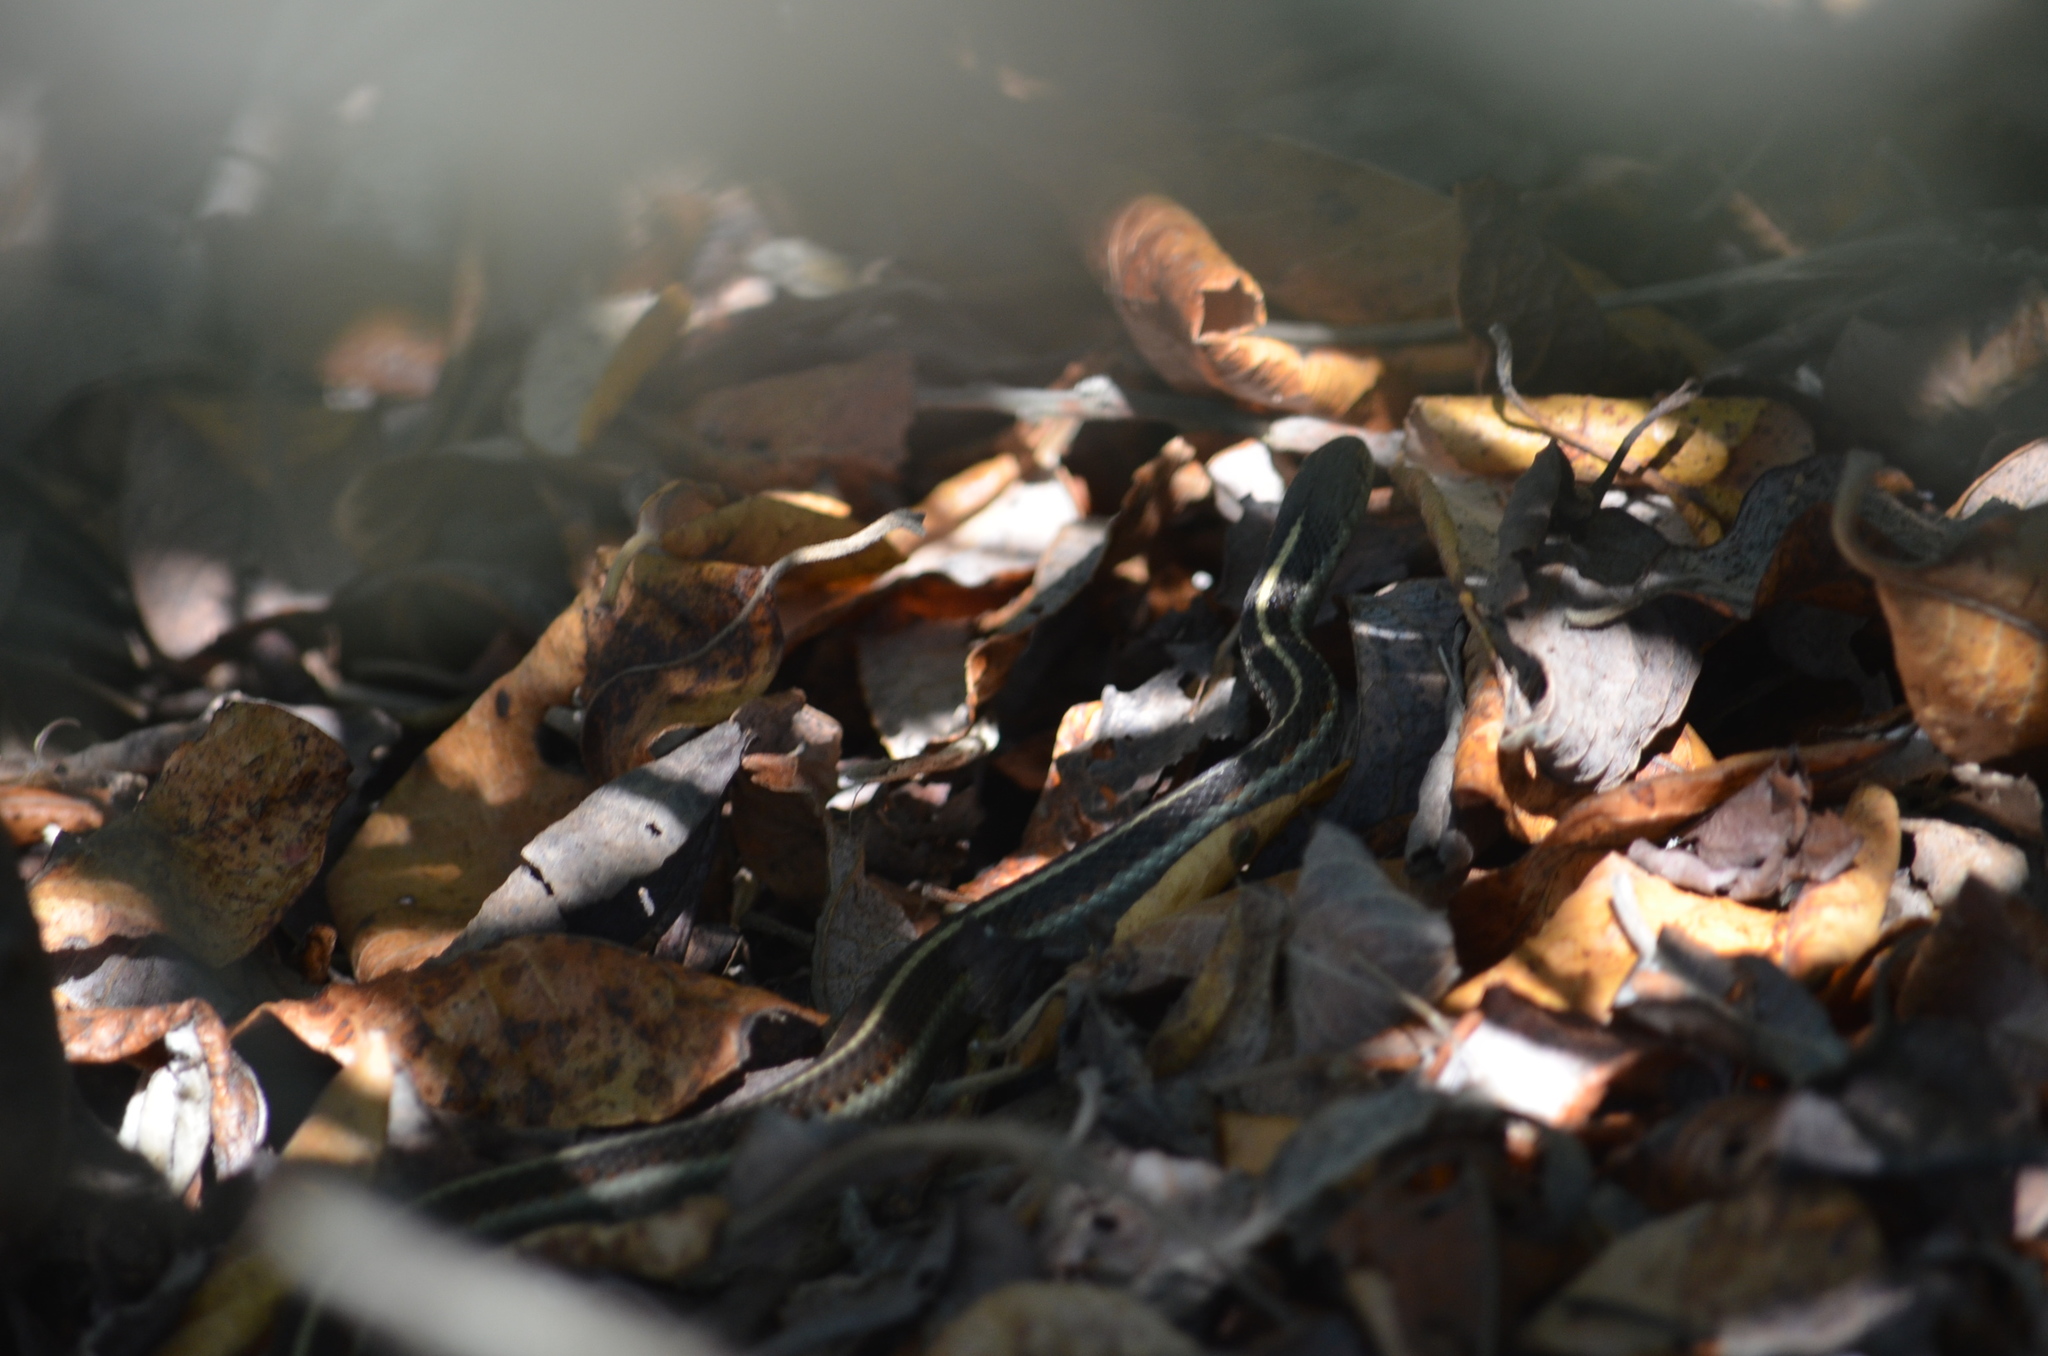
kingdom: Animalia
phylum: Chordata
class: Squamata
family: Colubridae
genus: Thamnophis
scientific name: Thamnophis elegans
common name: Western terrestrial garter snake
